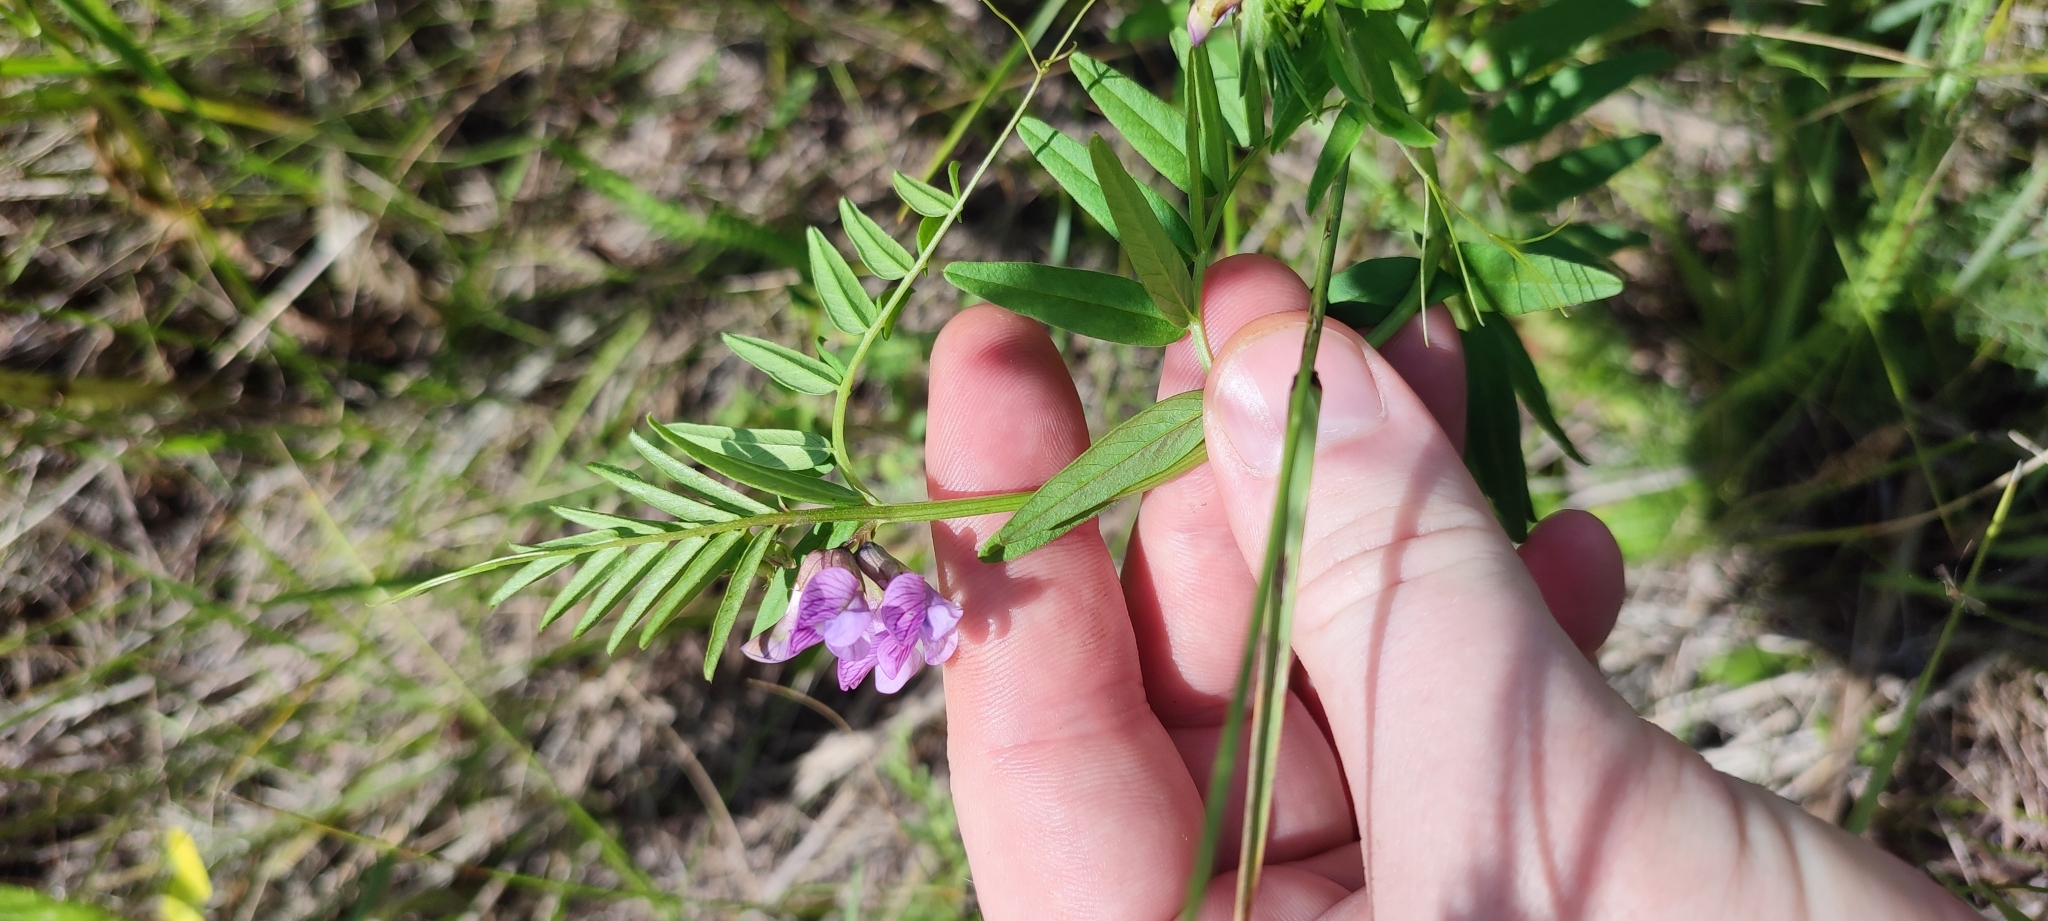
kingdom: Plantae
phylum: Tracheophyta
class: Magnoliopsida
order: Fabales
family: Fabaceae
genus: Vicia
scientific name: Vicia sepium
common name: Bush vetch
